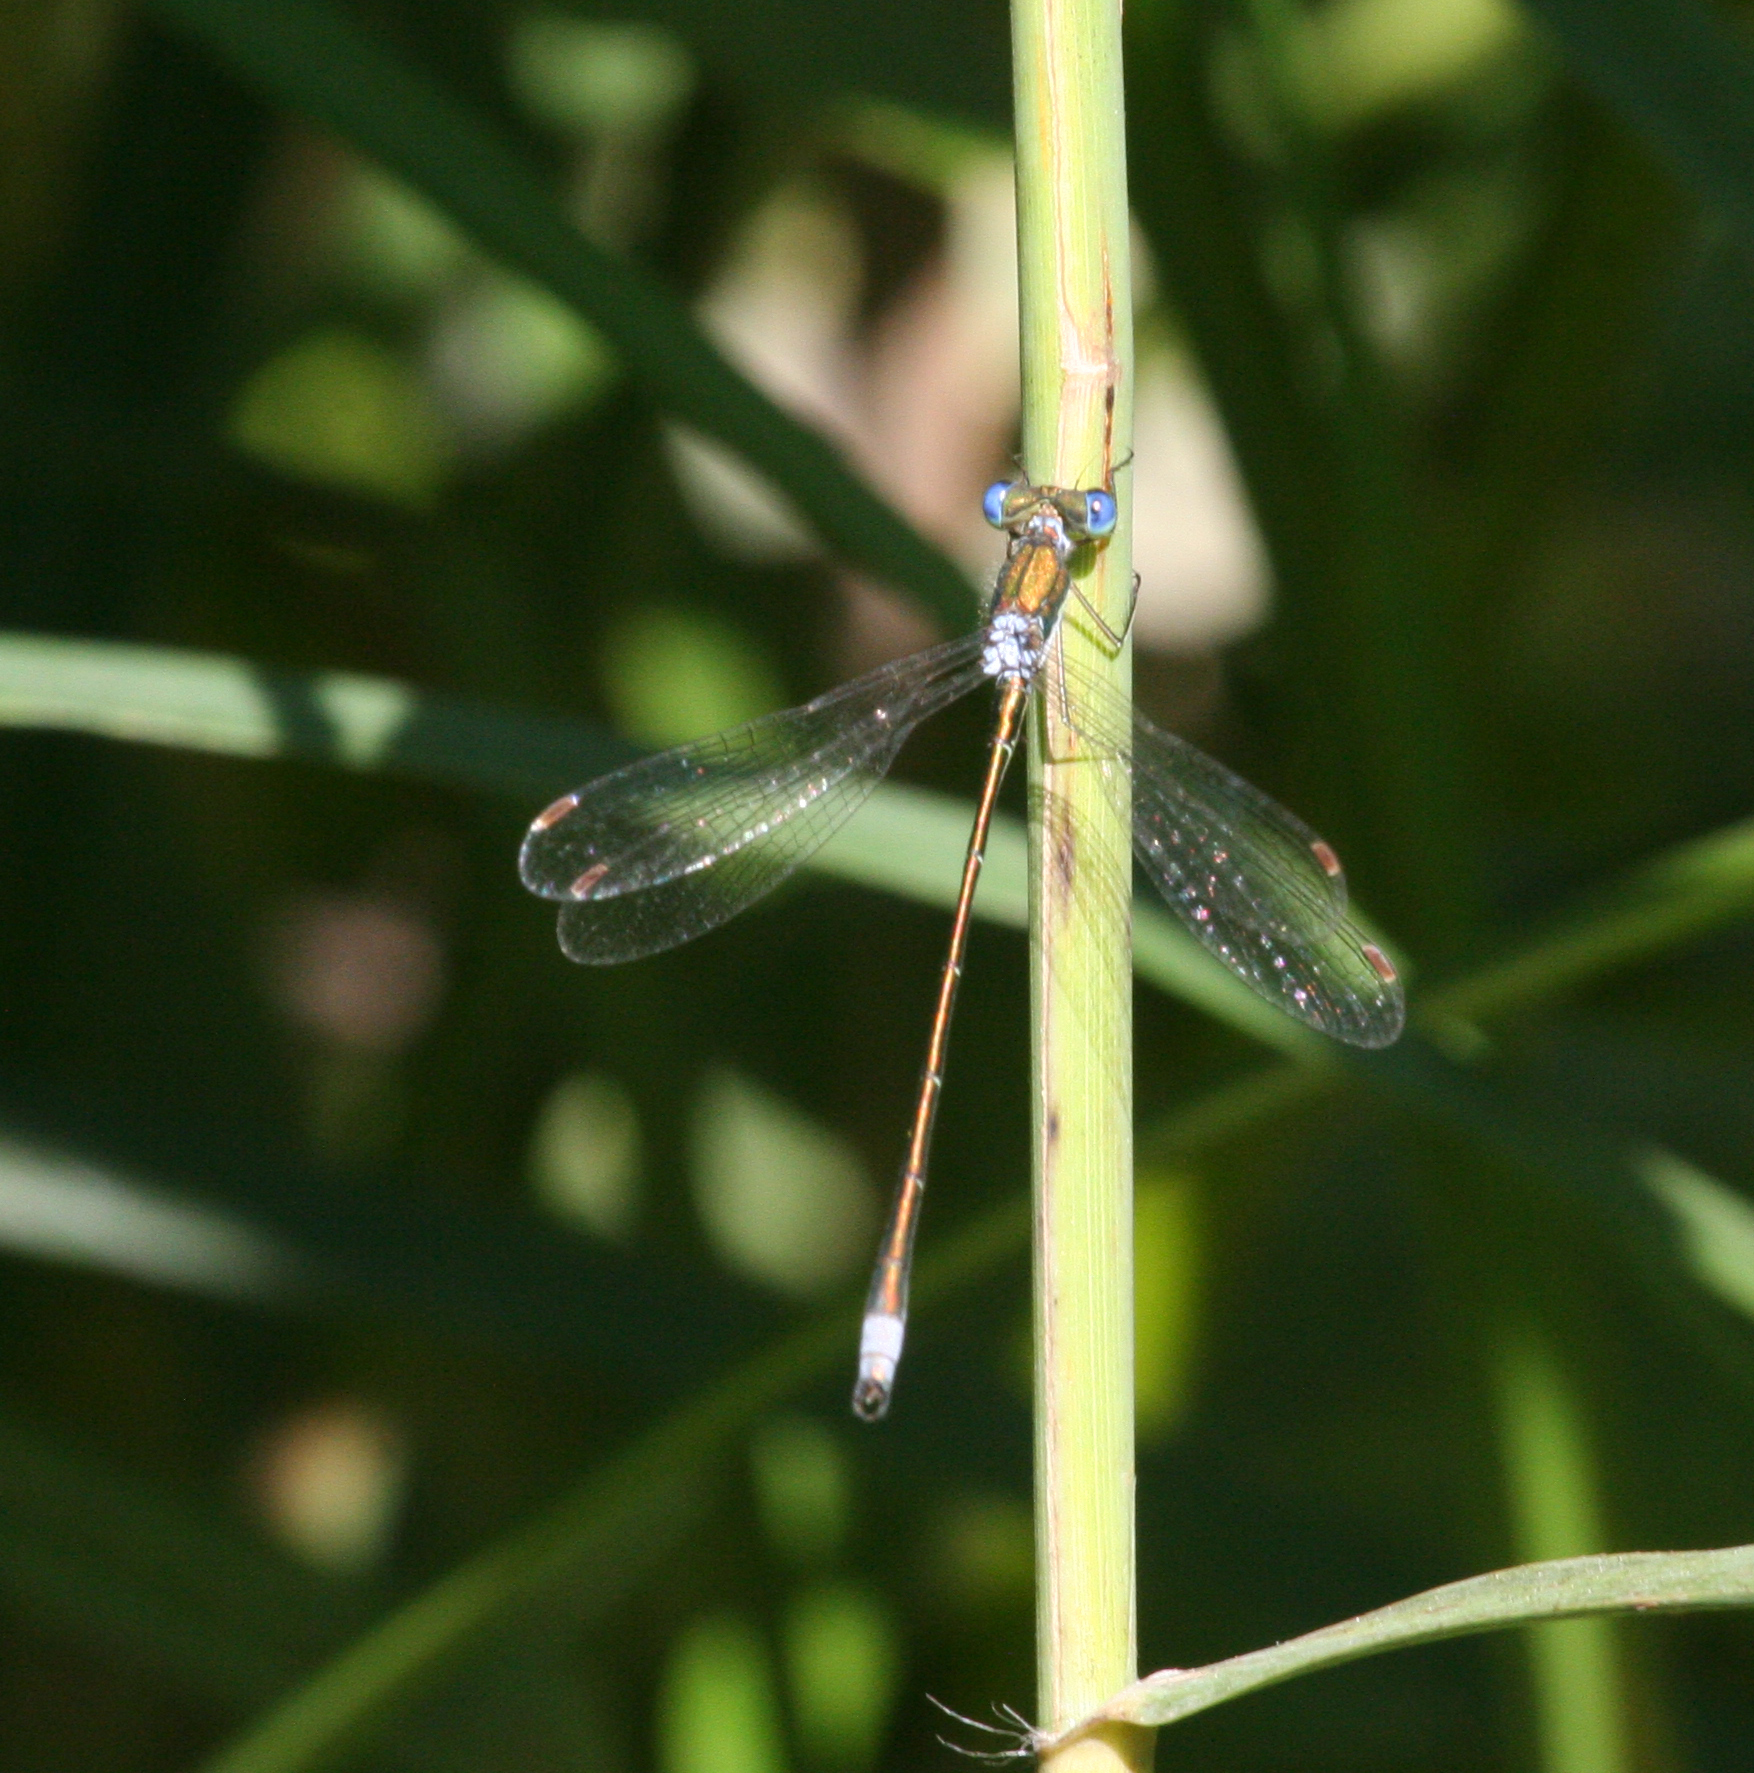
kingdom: Animalia
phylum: Arthropoda
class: Insecta
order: Odonata
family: Lestidae
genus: Lestes
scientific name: Lestes virens
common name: Small emerald spreadwing
